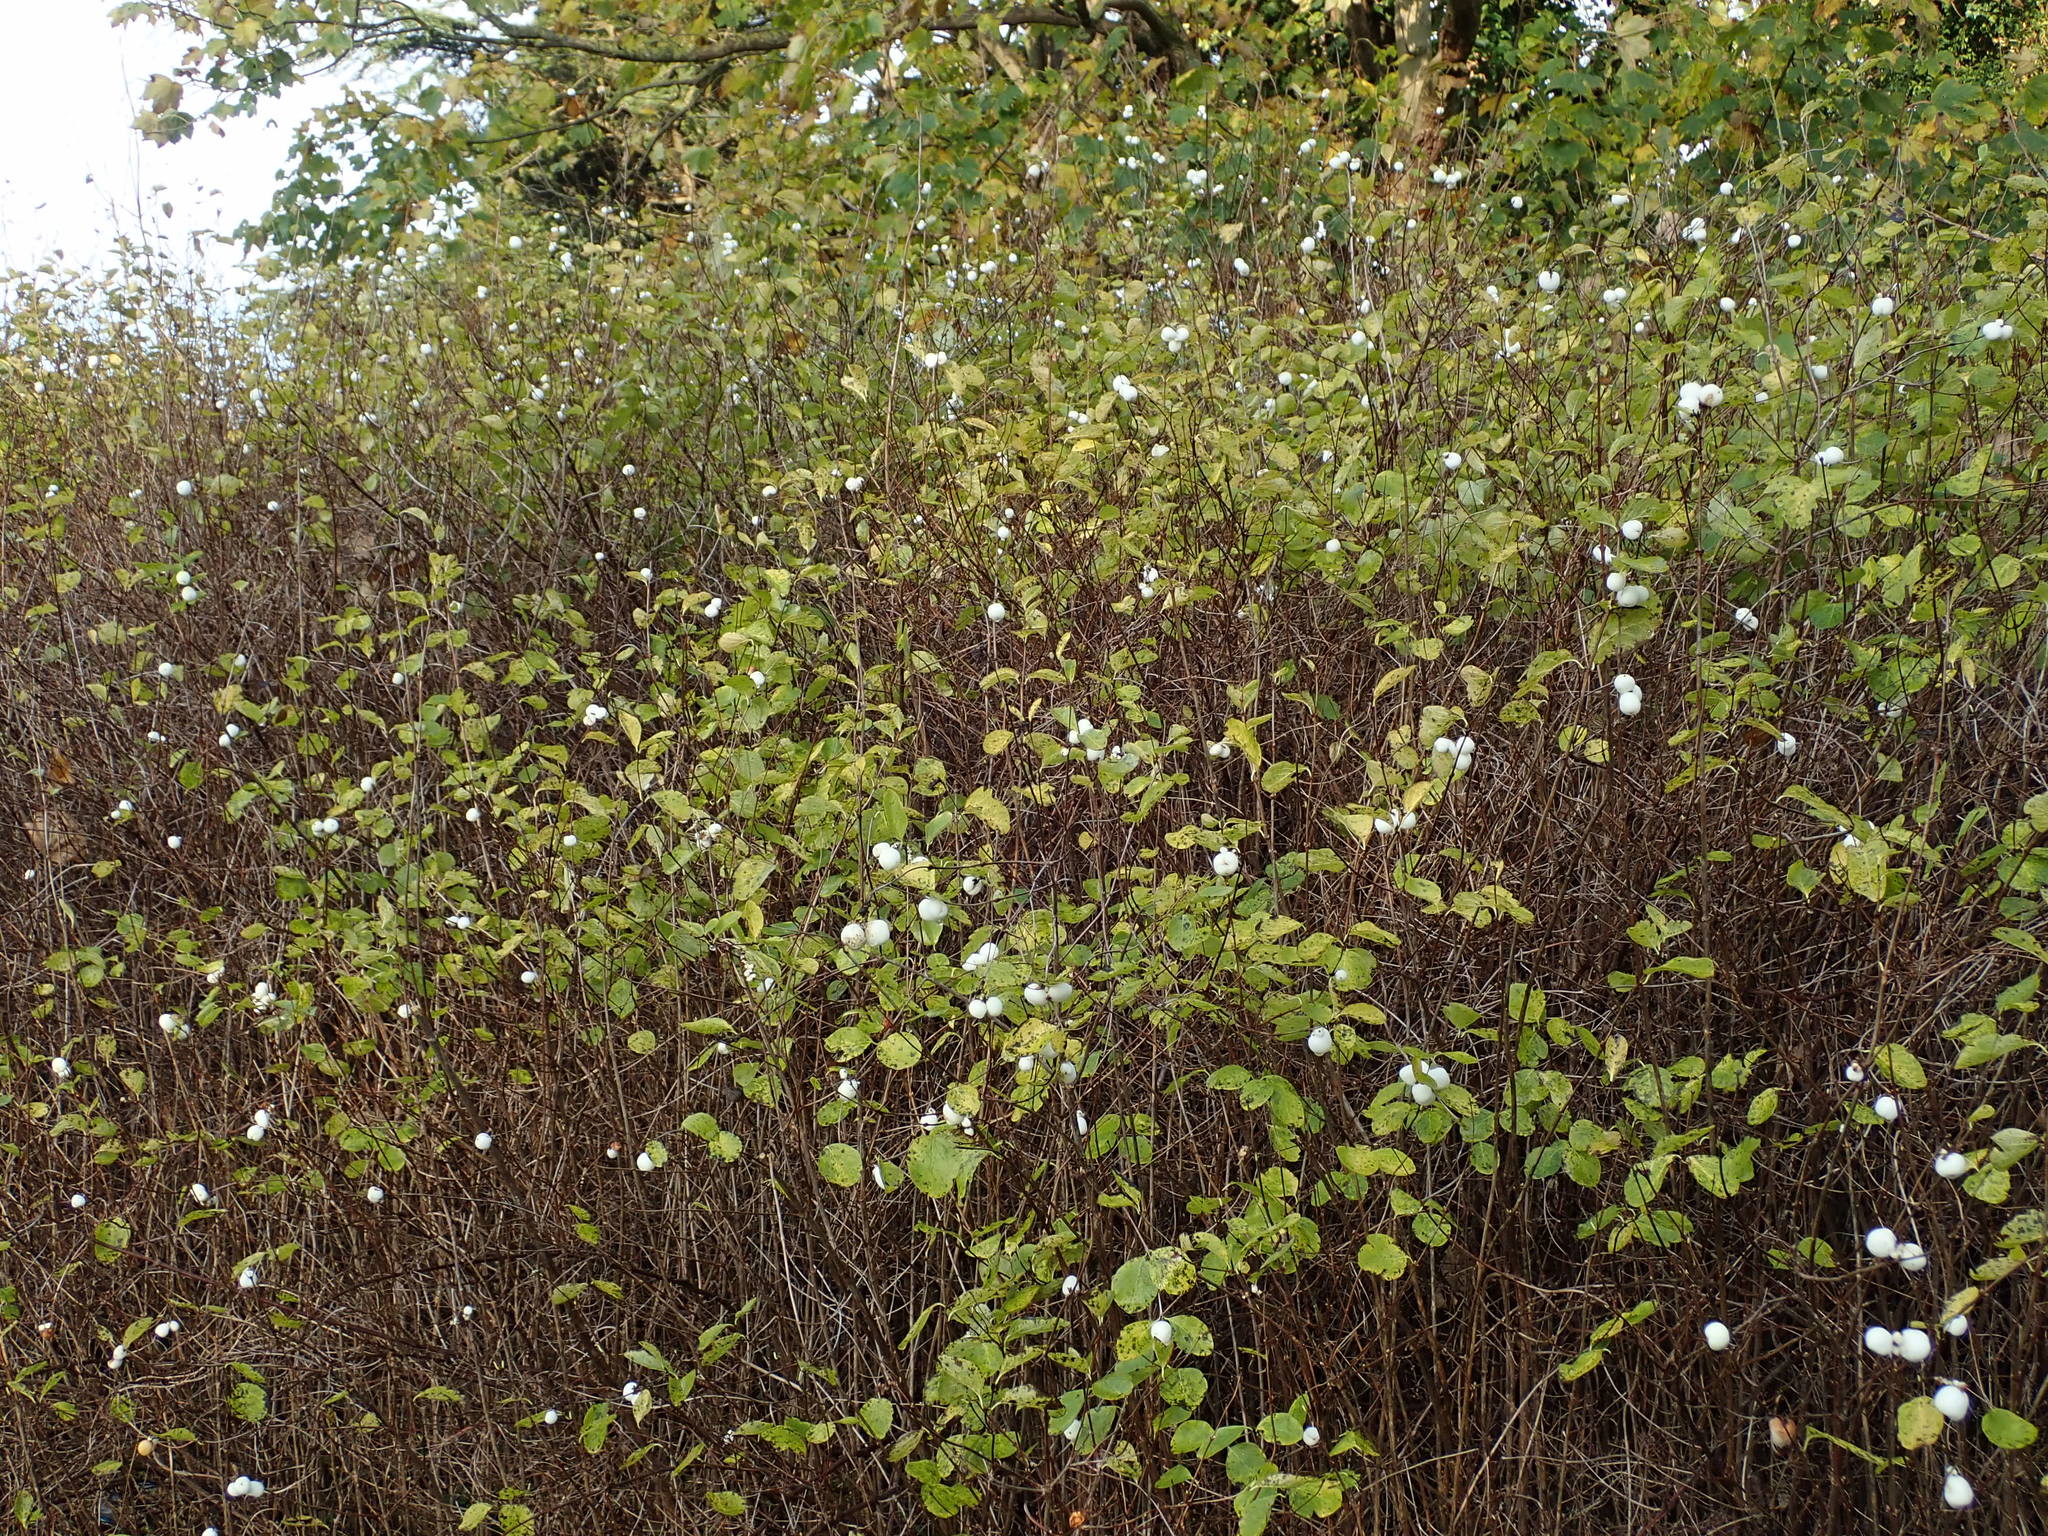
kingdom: Plantae
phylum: Tracheophyta
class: Magnoliopsida
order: Dipsacales
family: Caprifoliaceae
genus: Symphoricarpos
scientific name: Symphoricarpos albus
